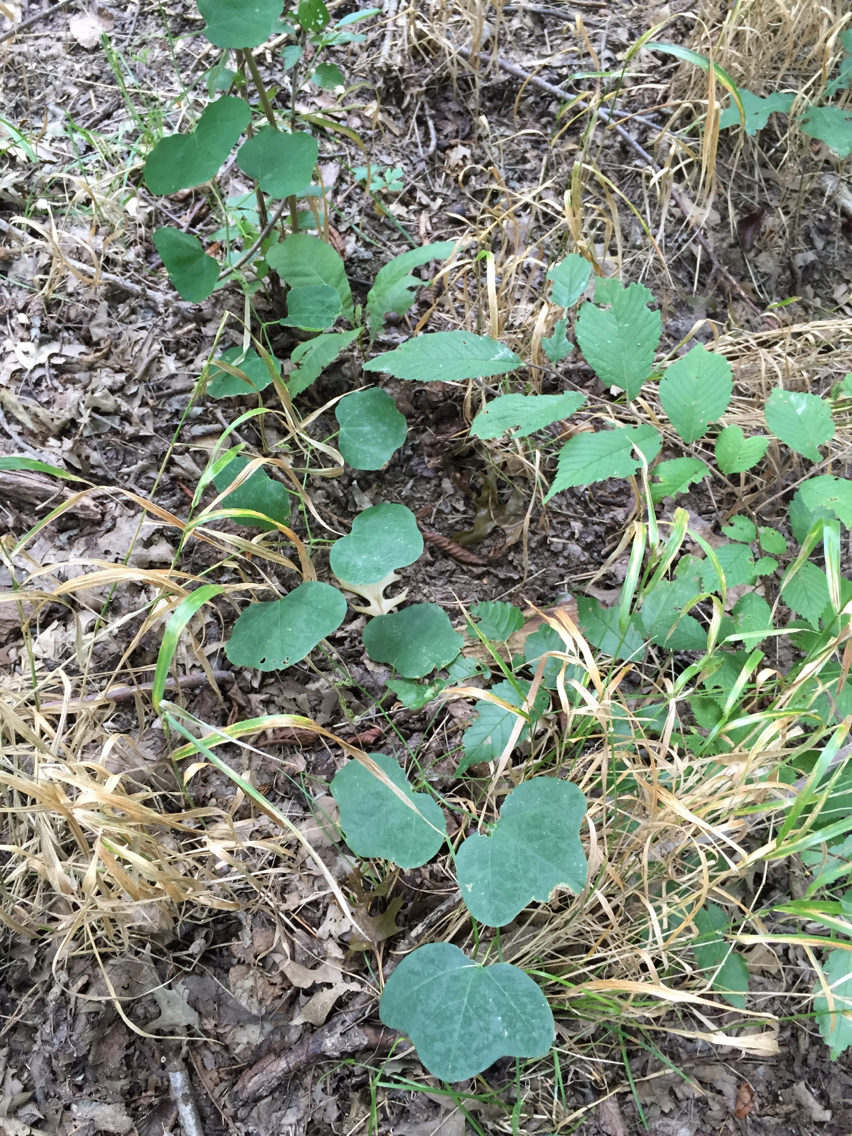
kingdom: Plantae
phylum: Tracheophyta
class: Magnoliopsida
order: Malpighiales
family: Passifloraceae
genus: Passiflora
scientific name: Passiflora lutea
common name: Yellow passionflower
